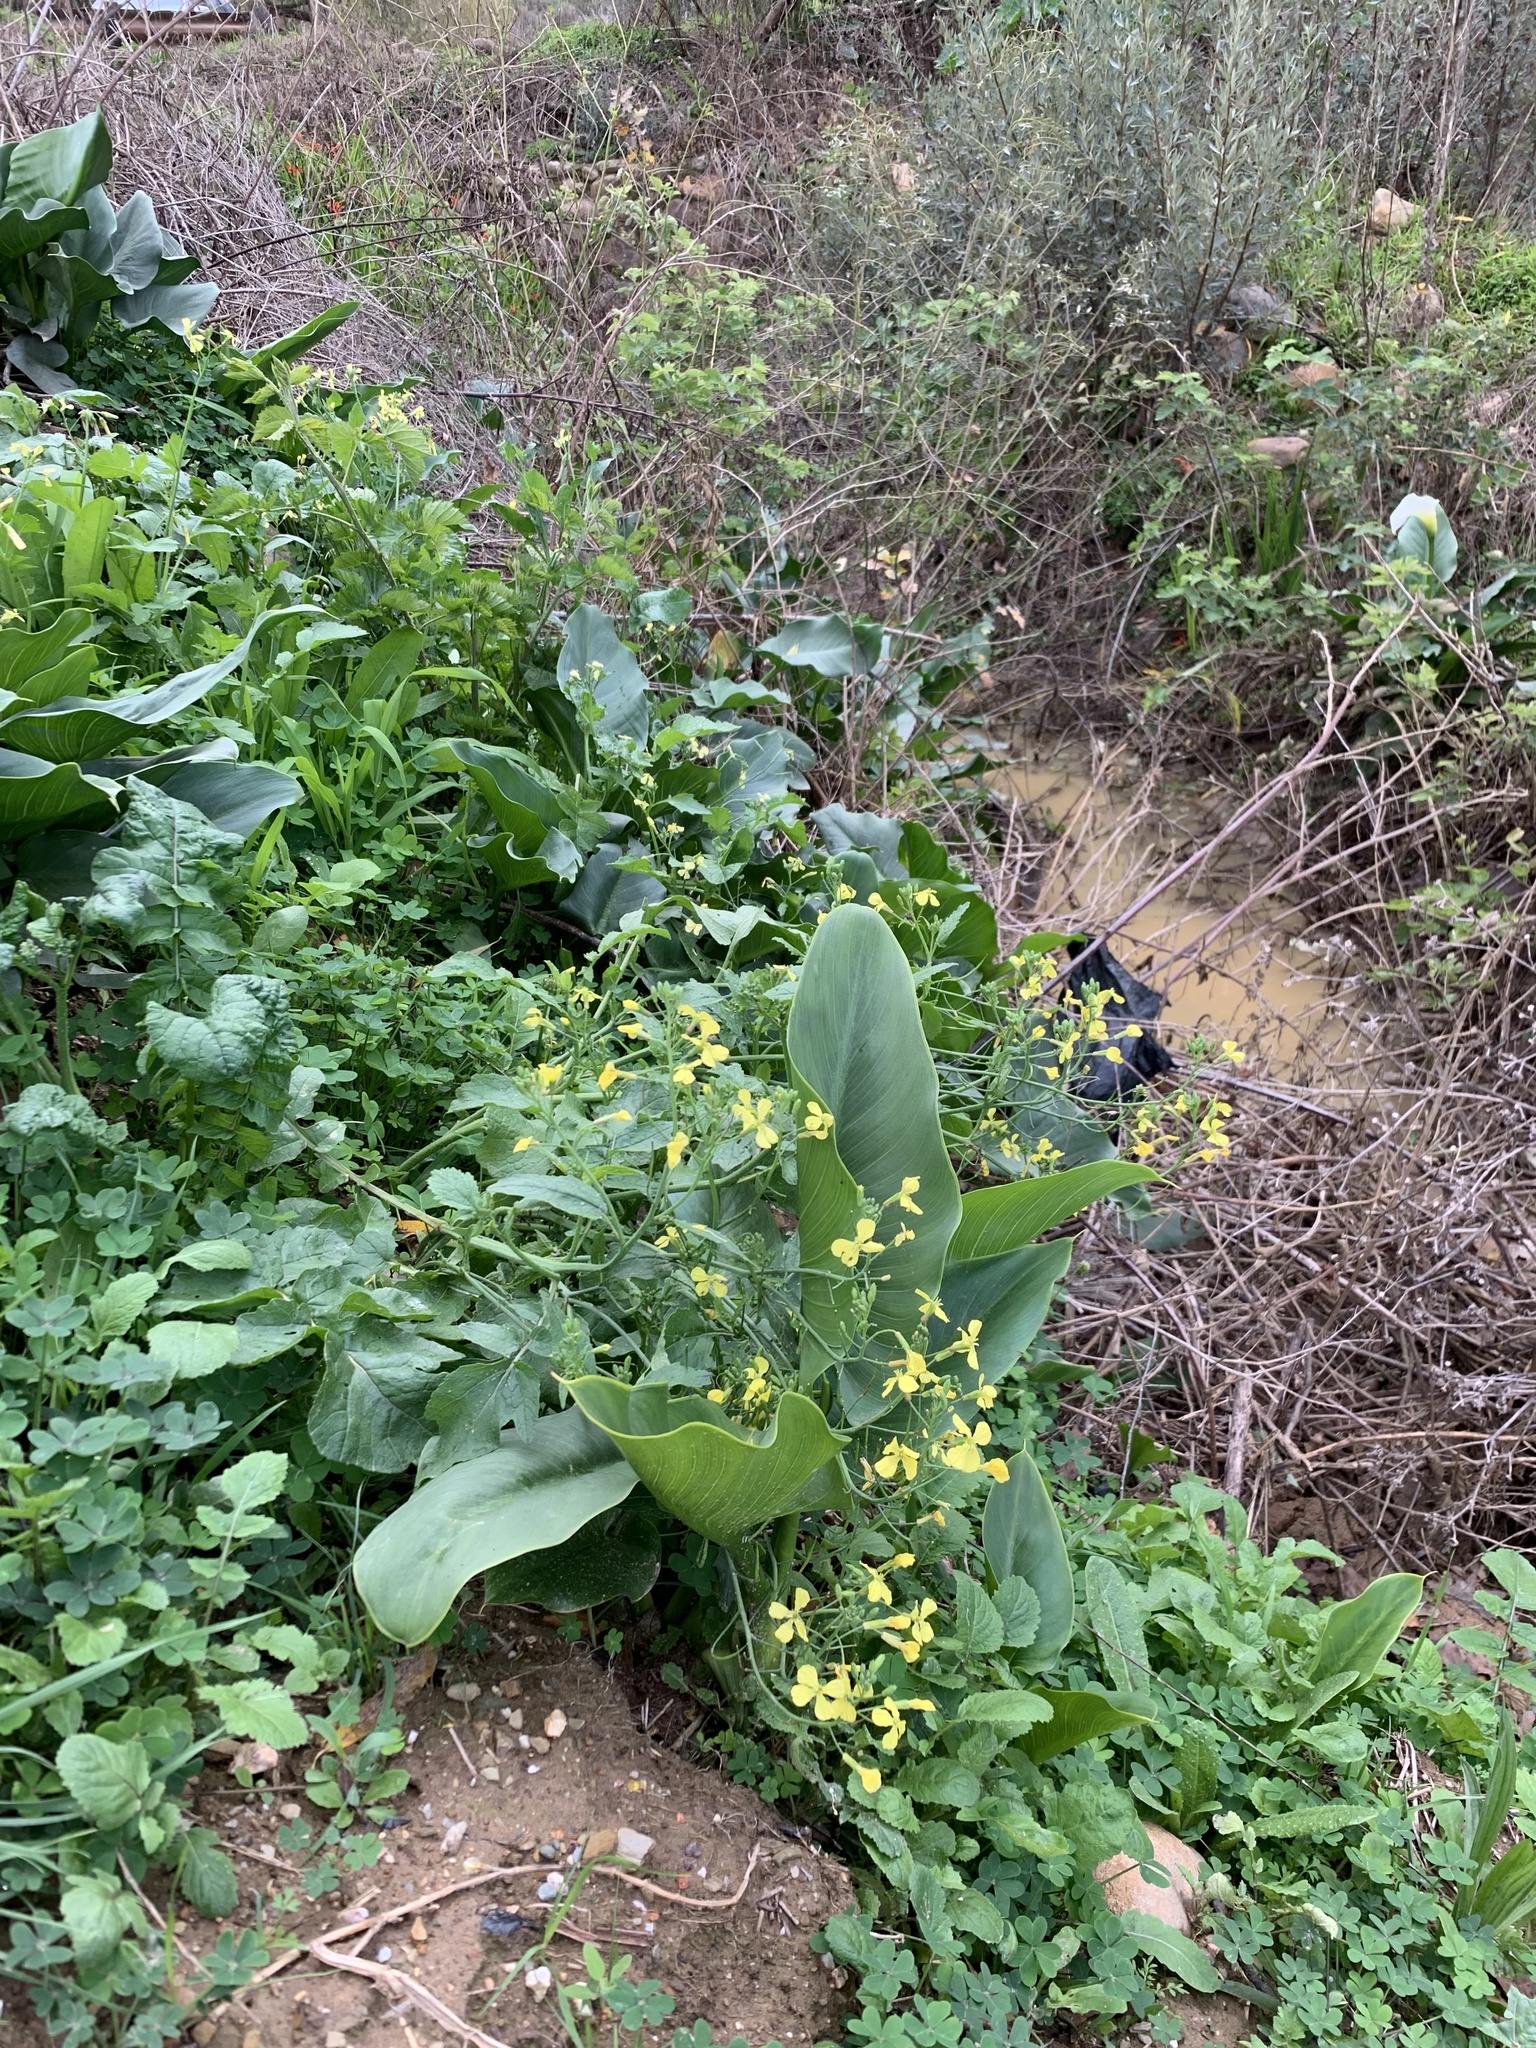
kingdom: Plantae
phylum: Tracheophyta
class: Magnoliopsida
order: Brassicales
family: Brassicaceae
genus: Raphanus
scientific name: Raphanus raphanistrum
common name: Wild radish
